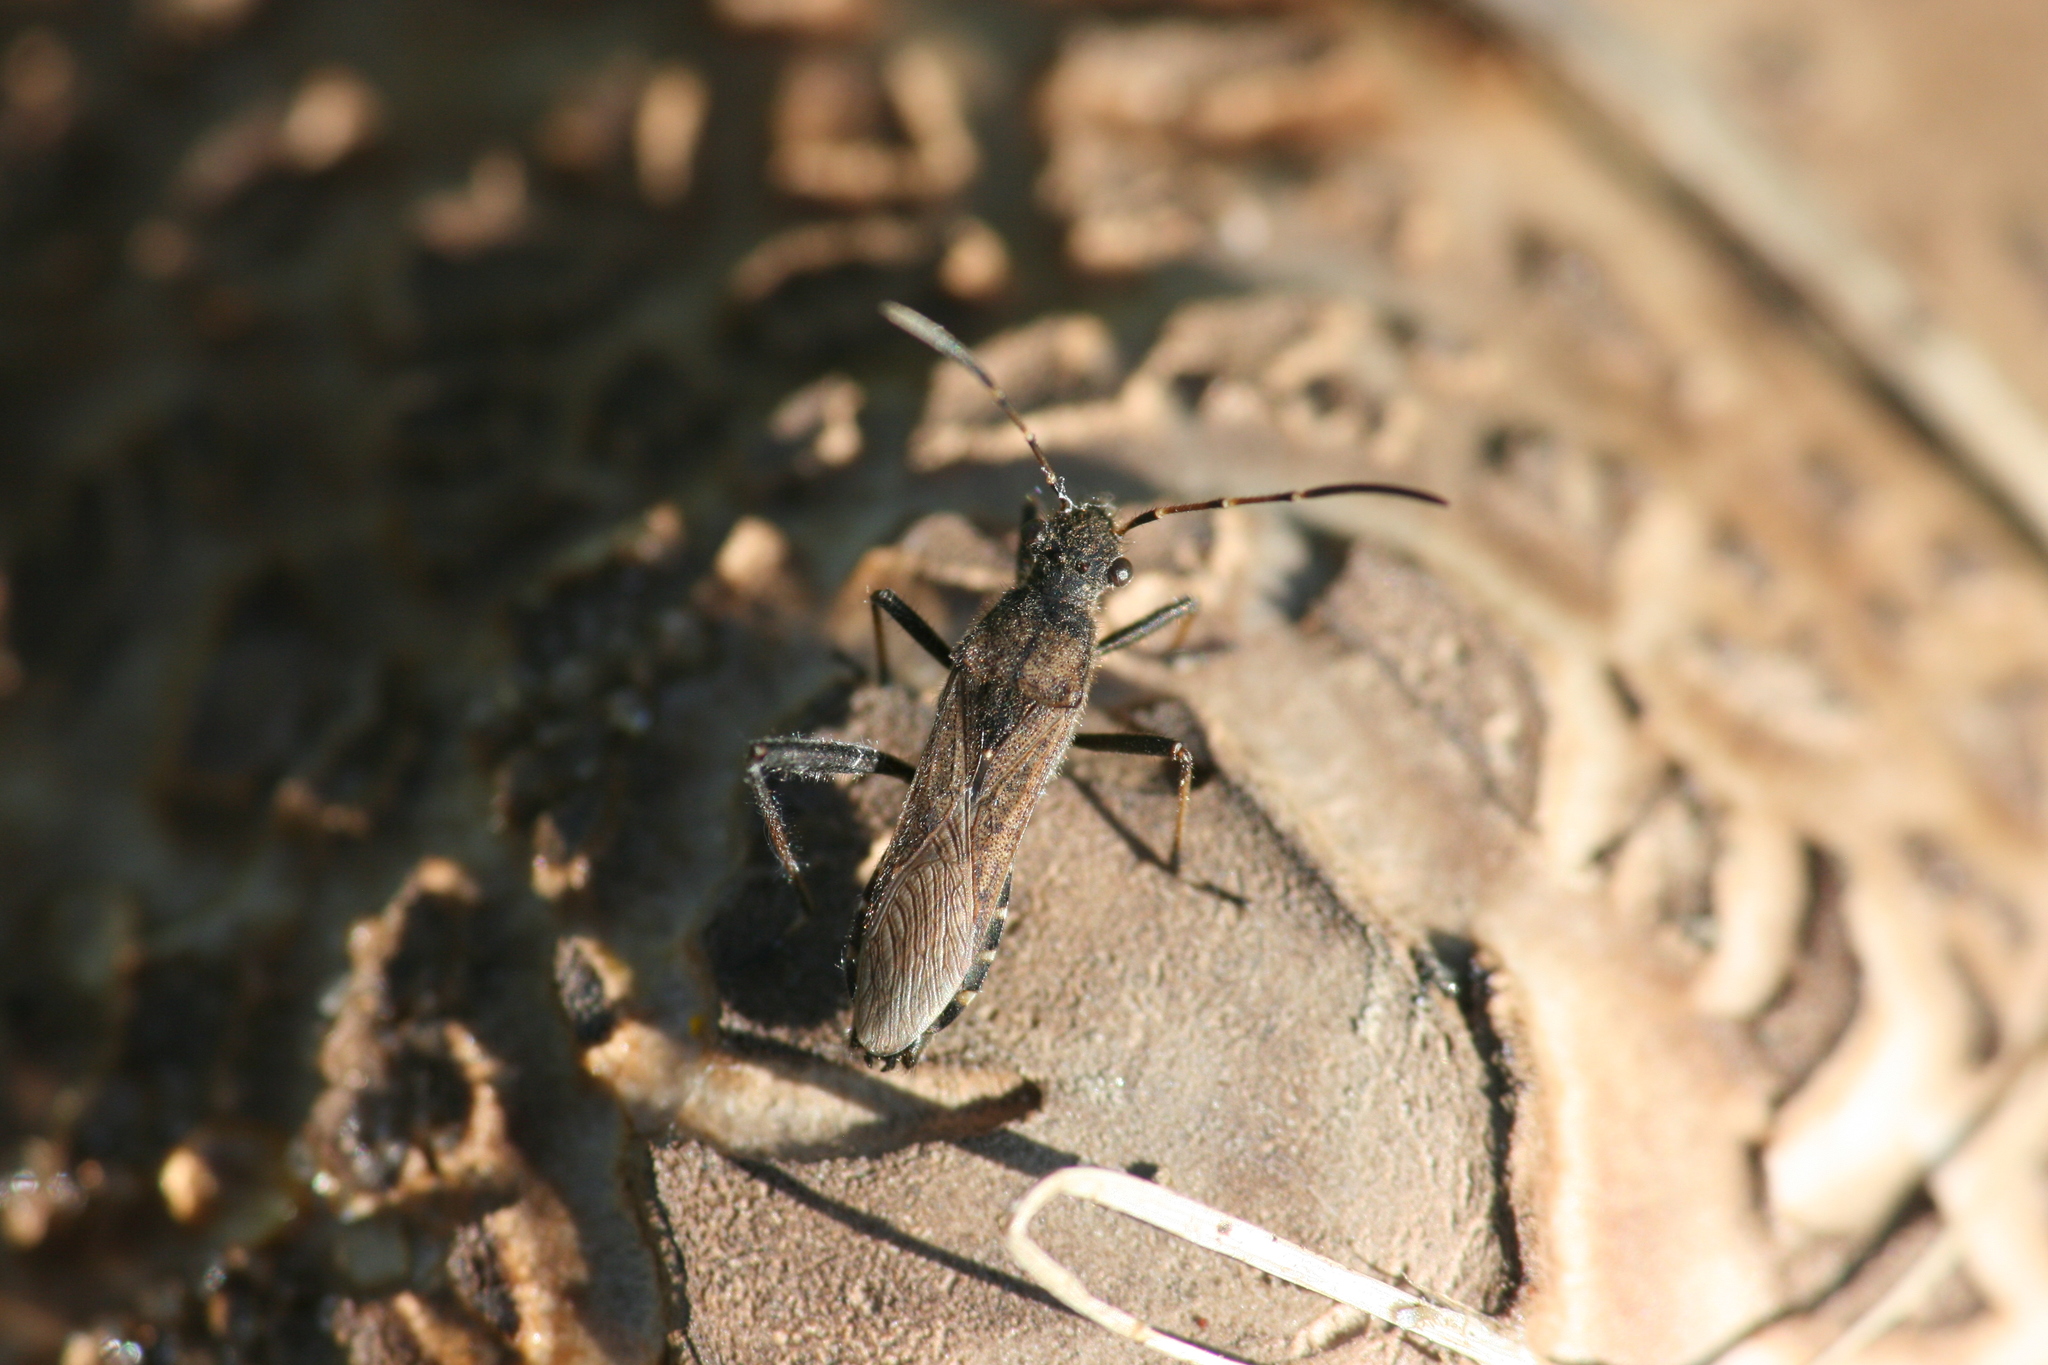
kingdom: Animalia
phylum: Arthropoda
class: Insecta
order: Hemiptera
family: Alydidae
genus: Alydus
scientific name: Alydus calcaratus
